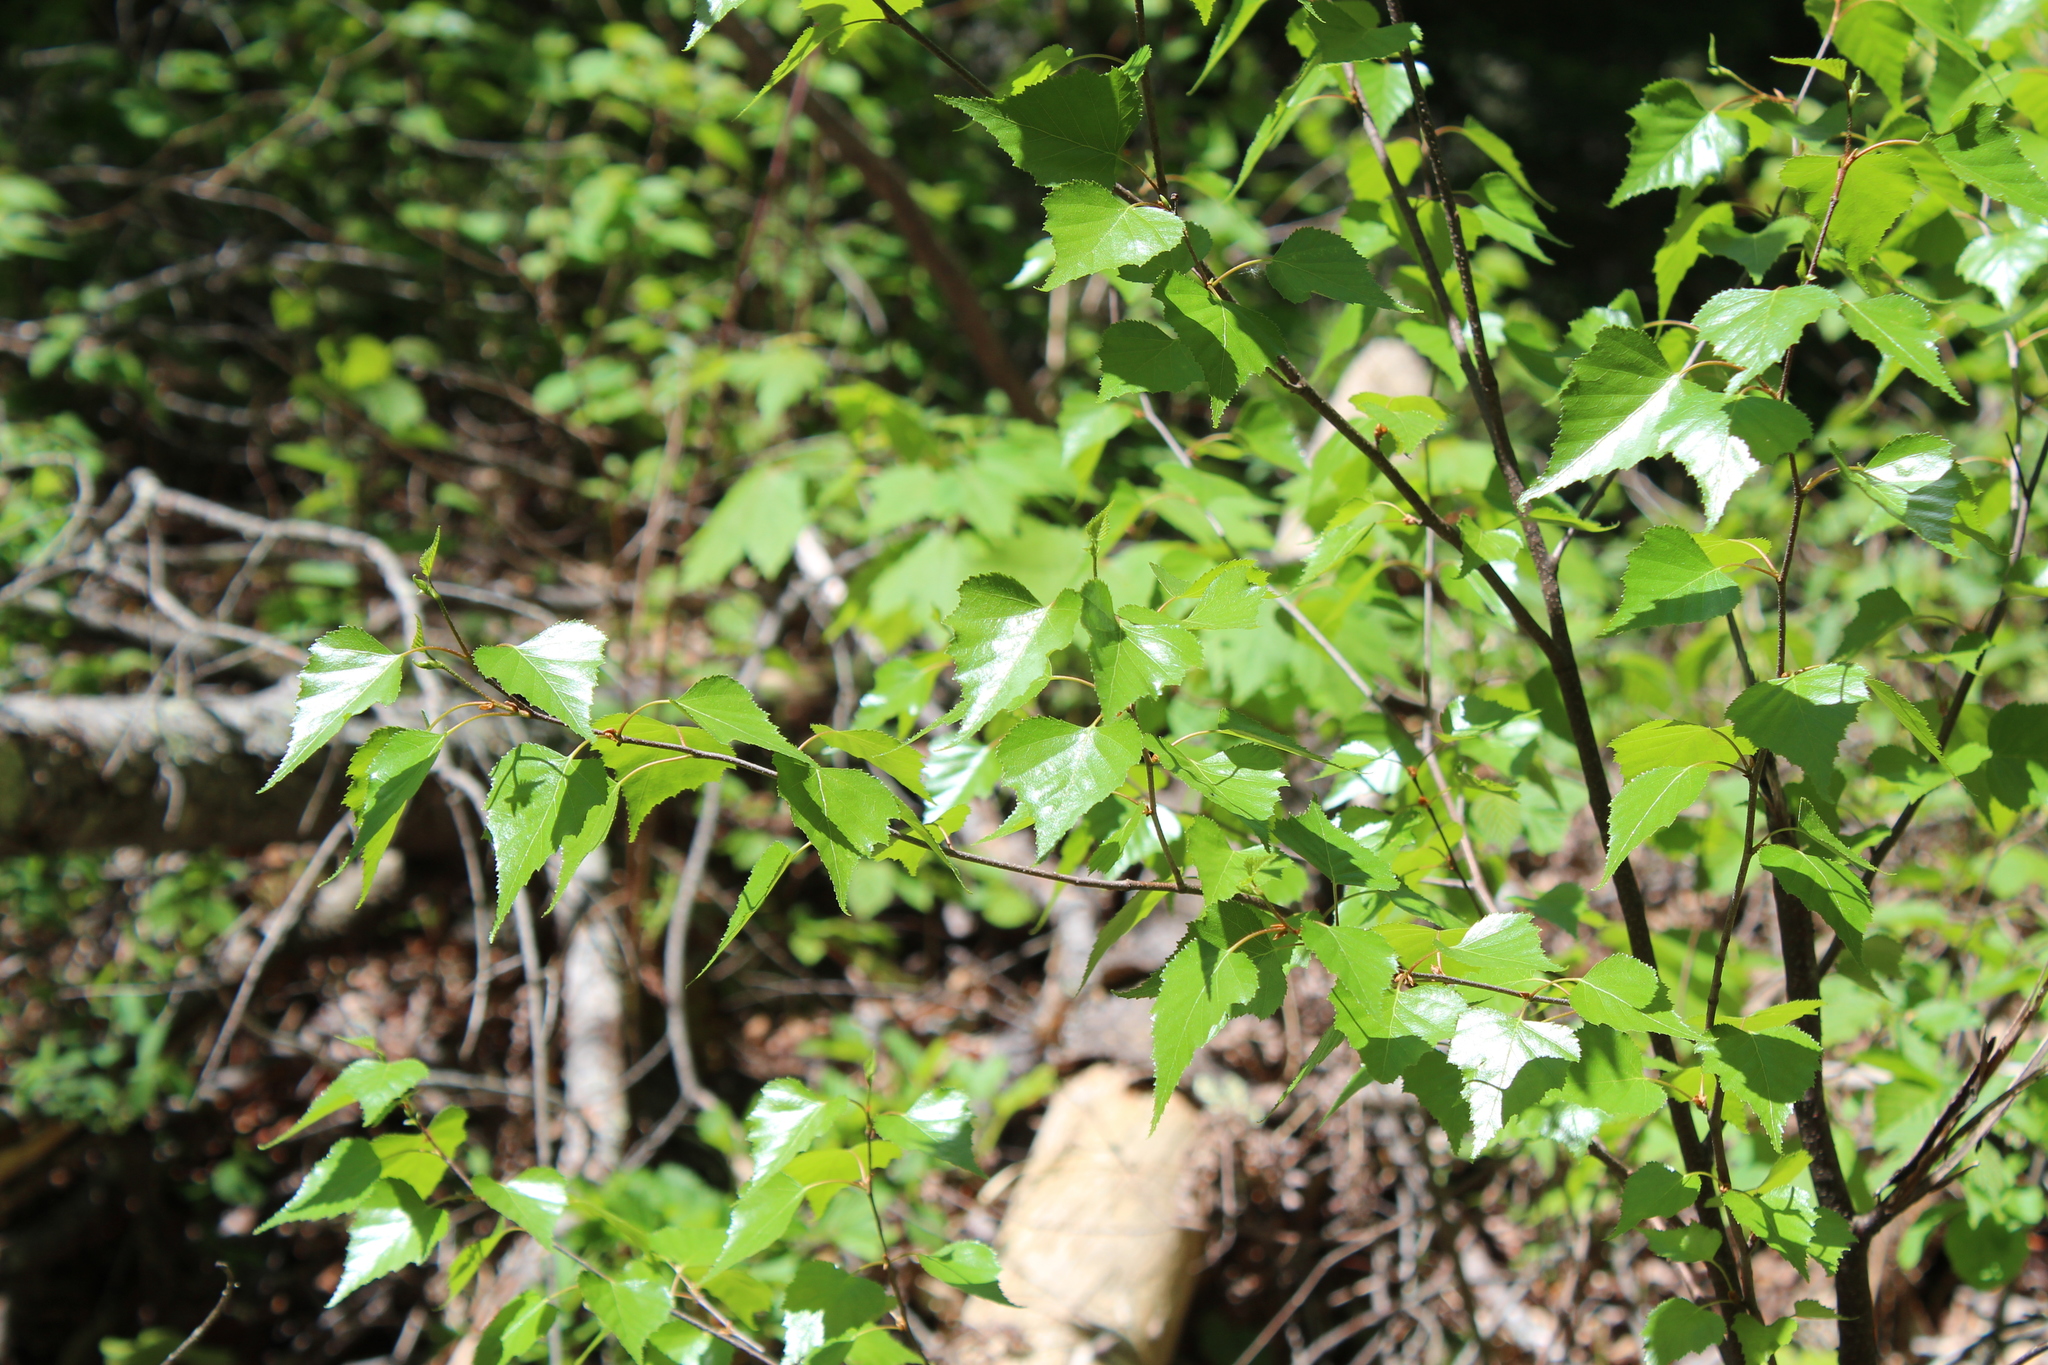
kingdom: Plantae
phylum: Tracheophyta
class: Magnoliopsida
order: Fagales
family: Betulaceae
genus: Betula
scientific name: Betula populifolia
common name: Fire birch
